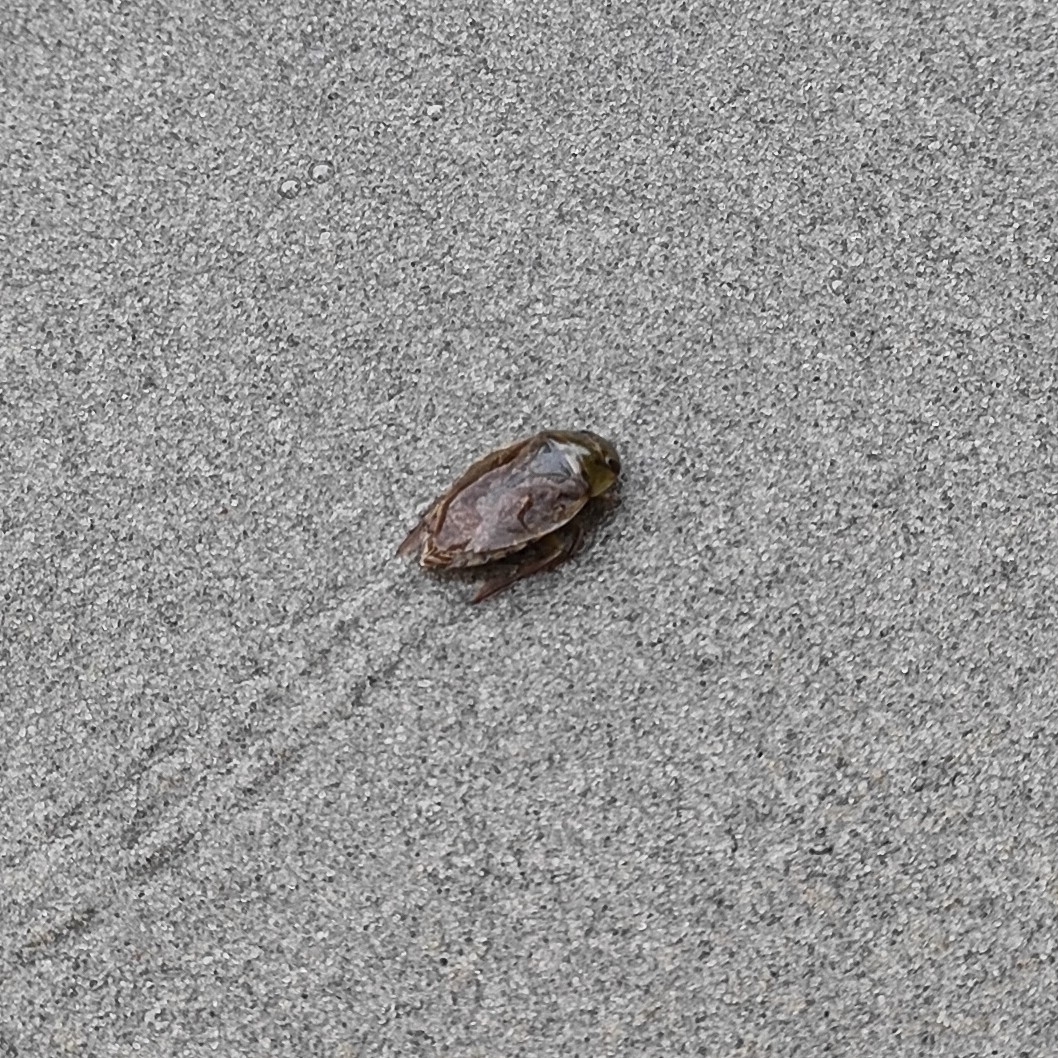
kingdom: Animalia
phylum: Arthropoda
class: Insecta
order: Hemiptera
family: Naucoridae
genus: Ilyocoris
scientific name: Ilyocoris cimicoides
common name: Saucer bugs
